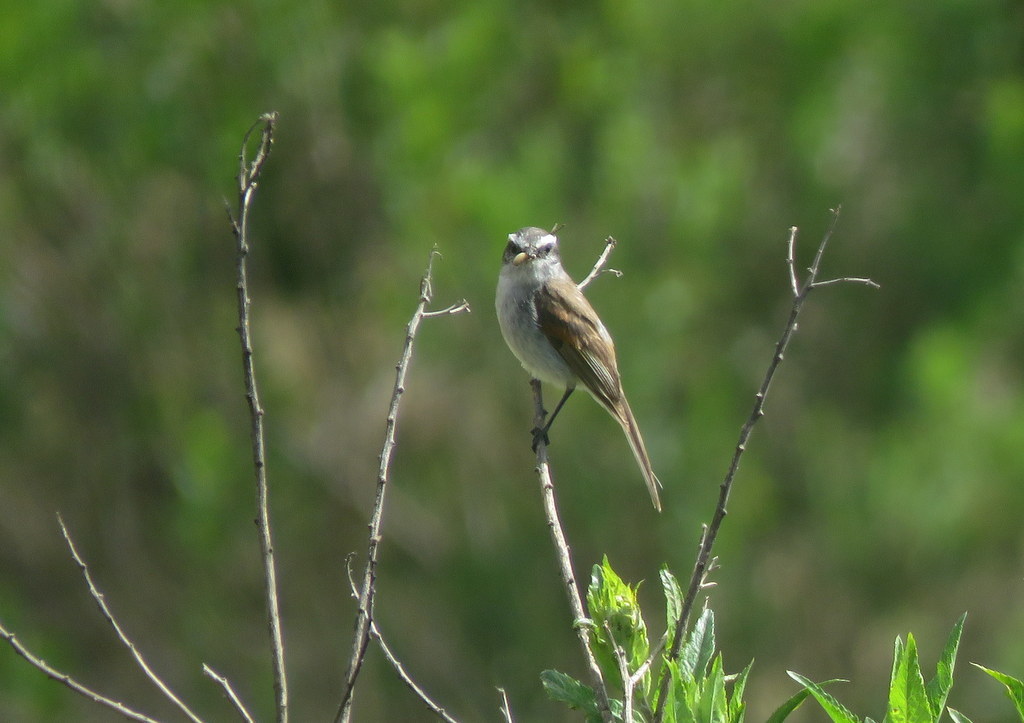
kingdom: Animalia
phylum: Chordata
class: Aves
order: Passeriformes
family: Tyrannidae
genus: Ochthoeca
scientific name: Ochthoeca leucophrys
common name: White-browed chat-tyrant
